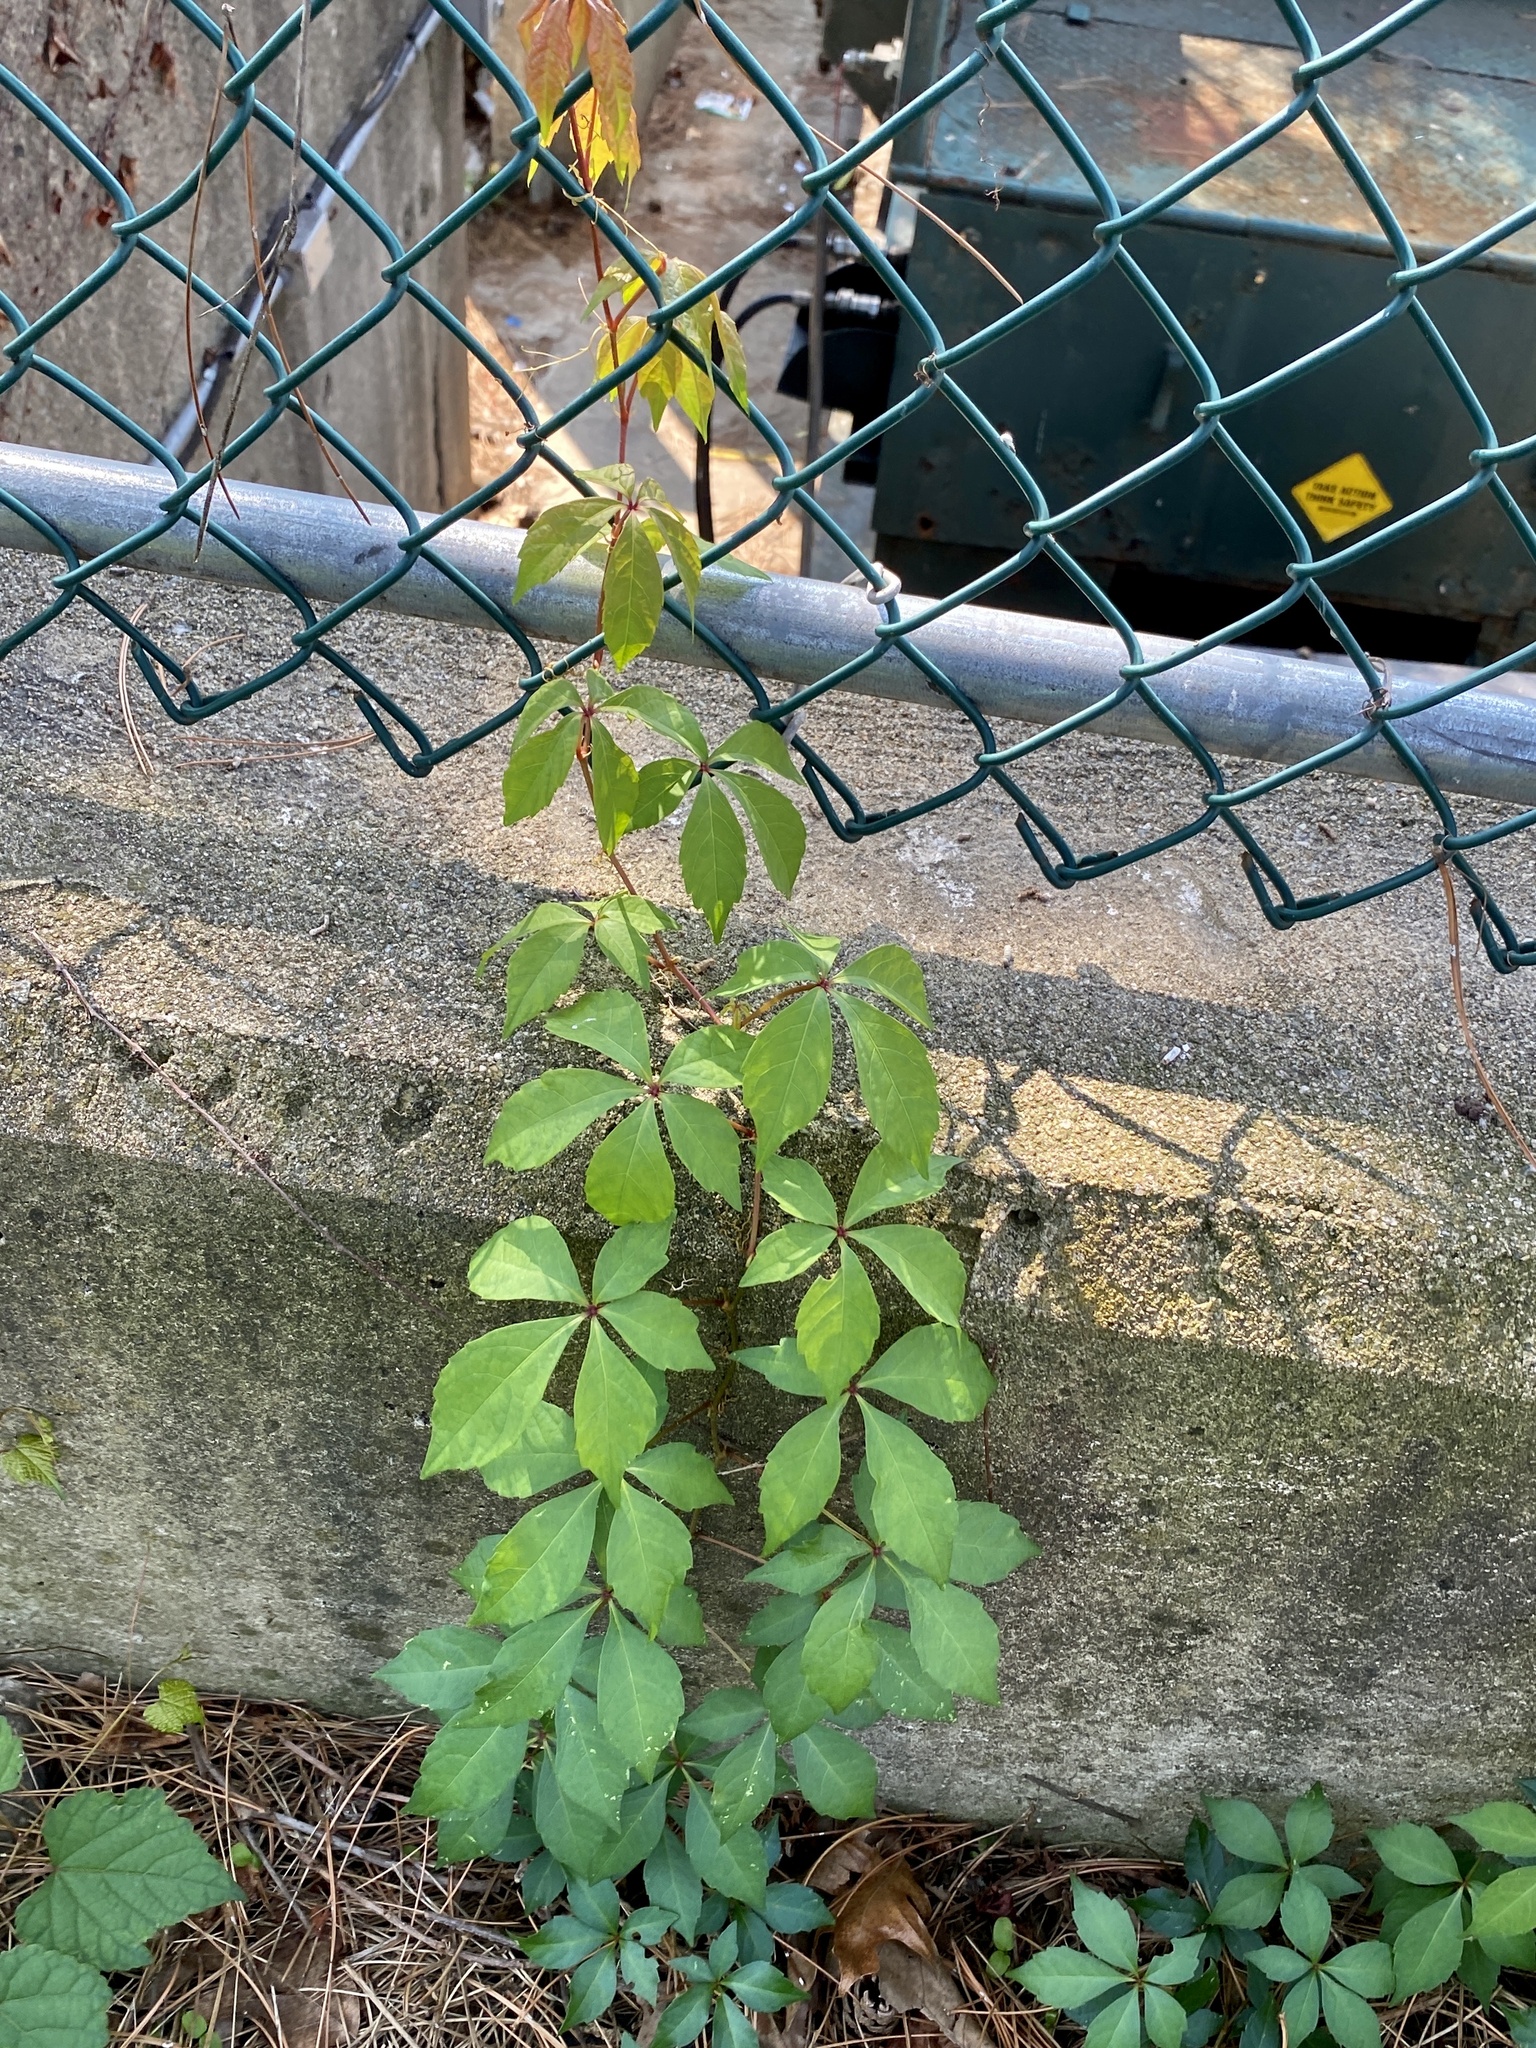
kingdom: Plantae
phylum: Tracheophyta
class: Magnoliopsida
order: Vitales
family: Vitaceae
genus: Parthenocissus
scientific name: Parthenocissus quinquefolia
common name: Virginia-creeper
